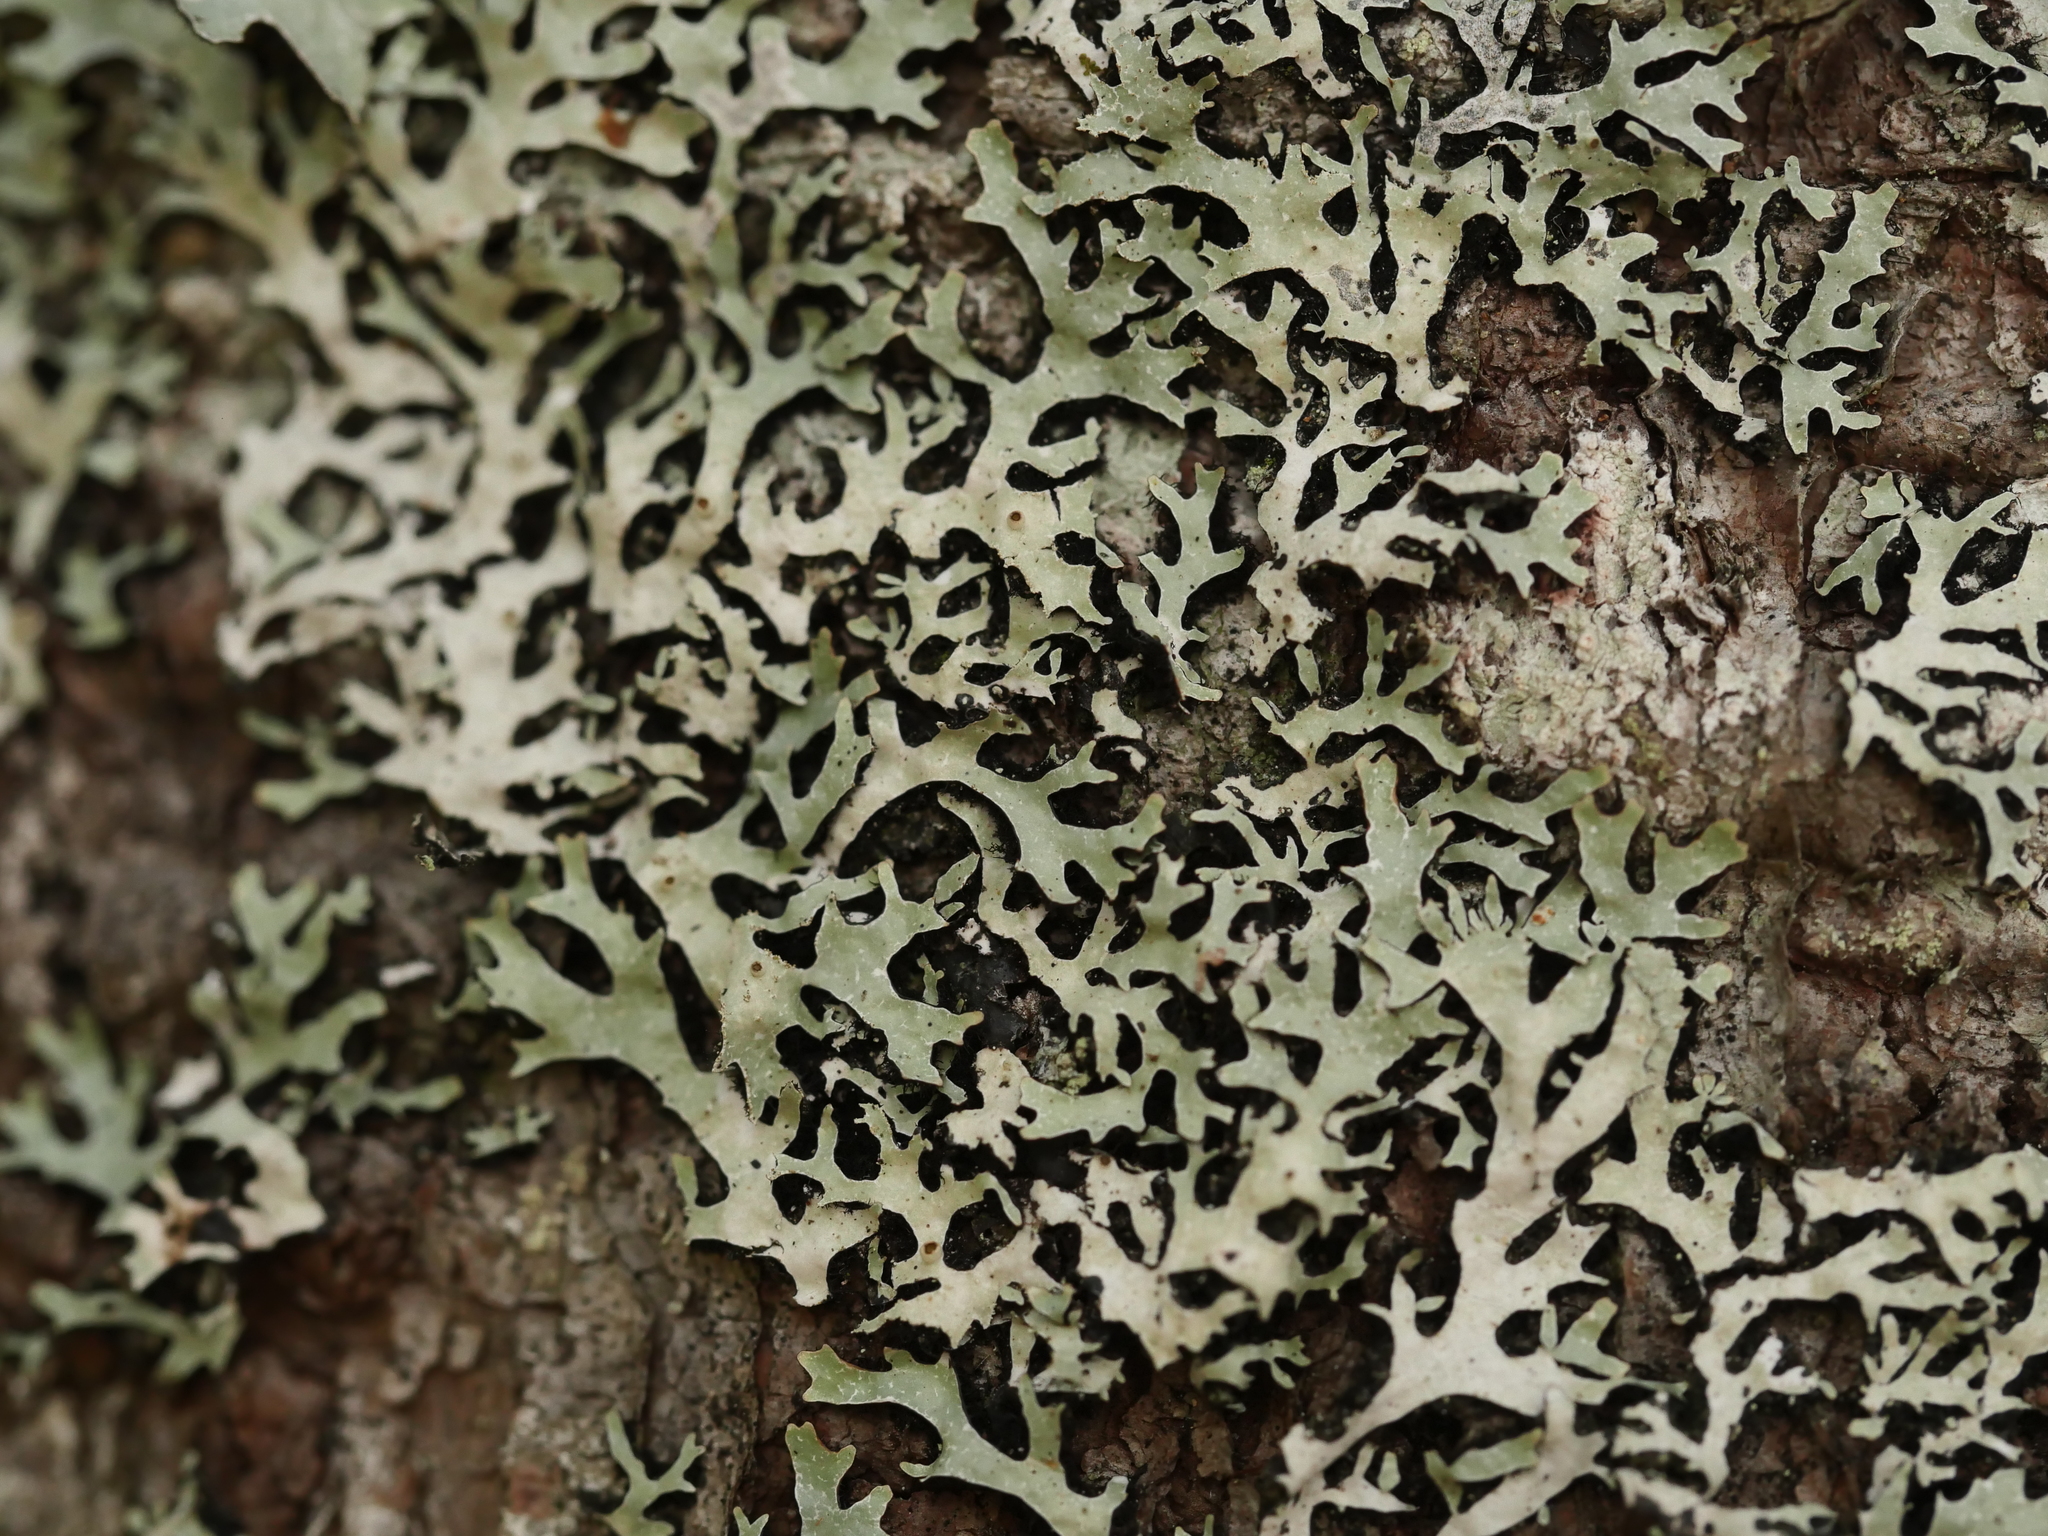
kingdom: Fungi
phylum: Ascomycota
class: Lecanoromycetes
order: Lecanorales
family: Parmeliaceae
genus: Parmelia
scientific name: Parmelia squarrosa
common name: Bottle brush shield lichen
